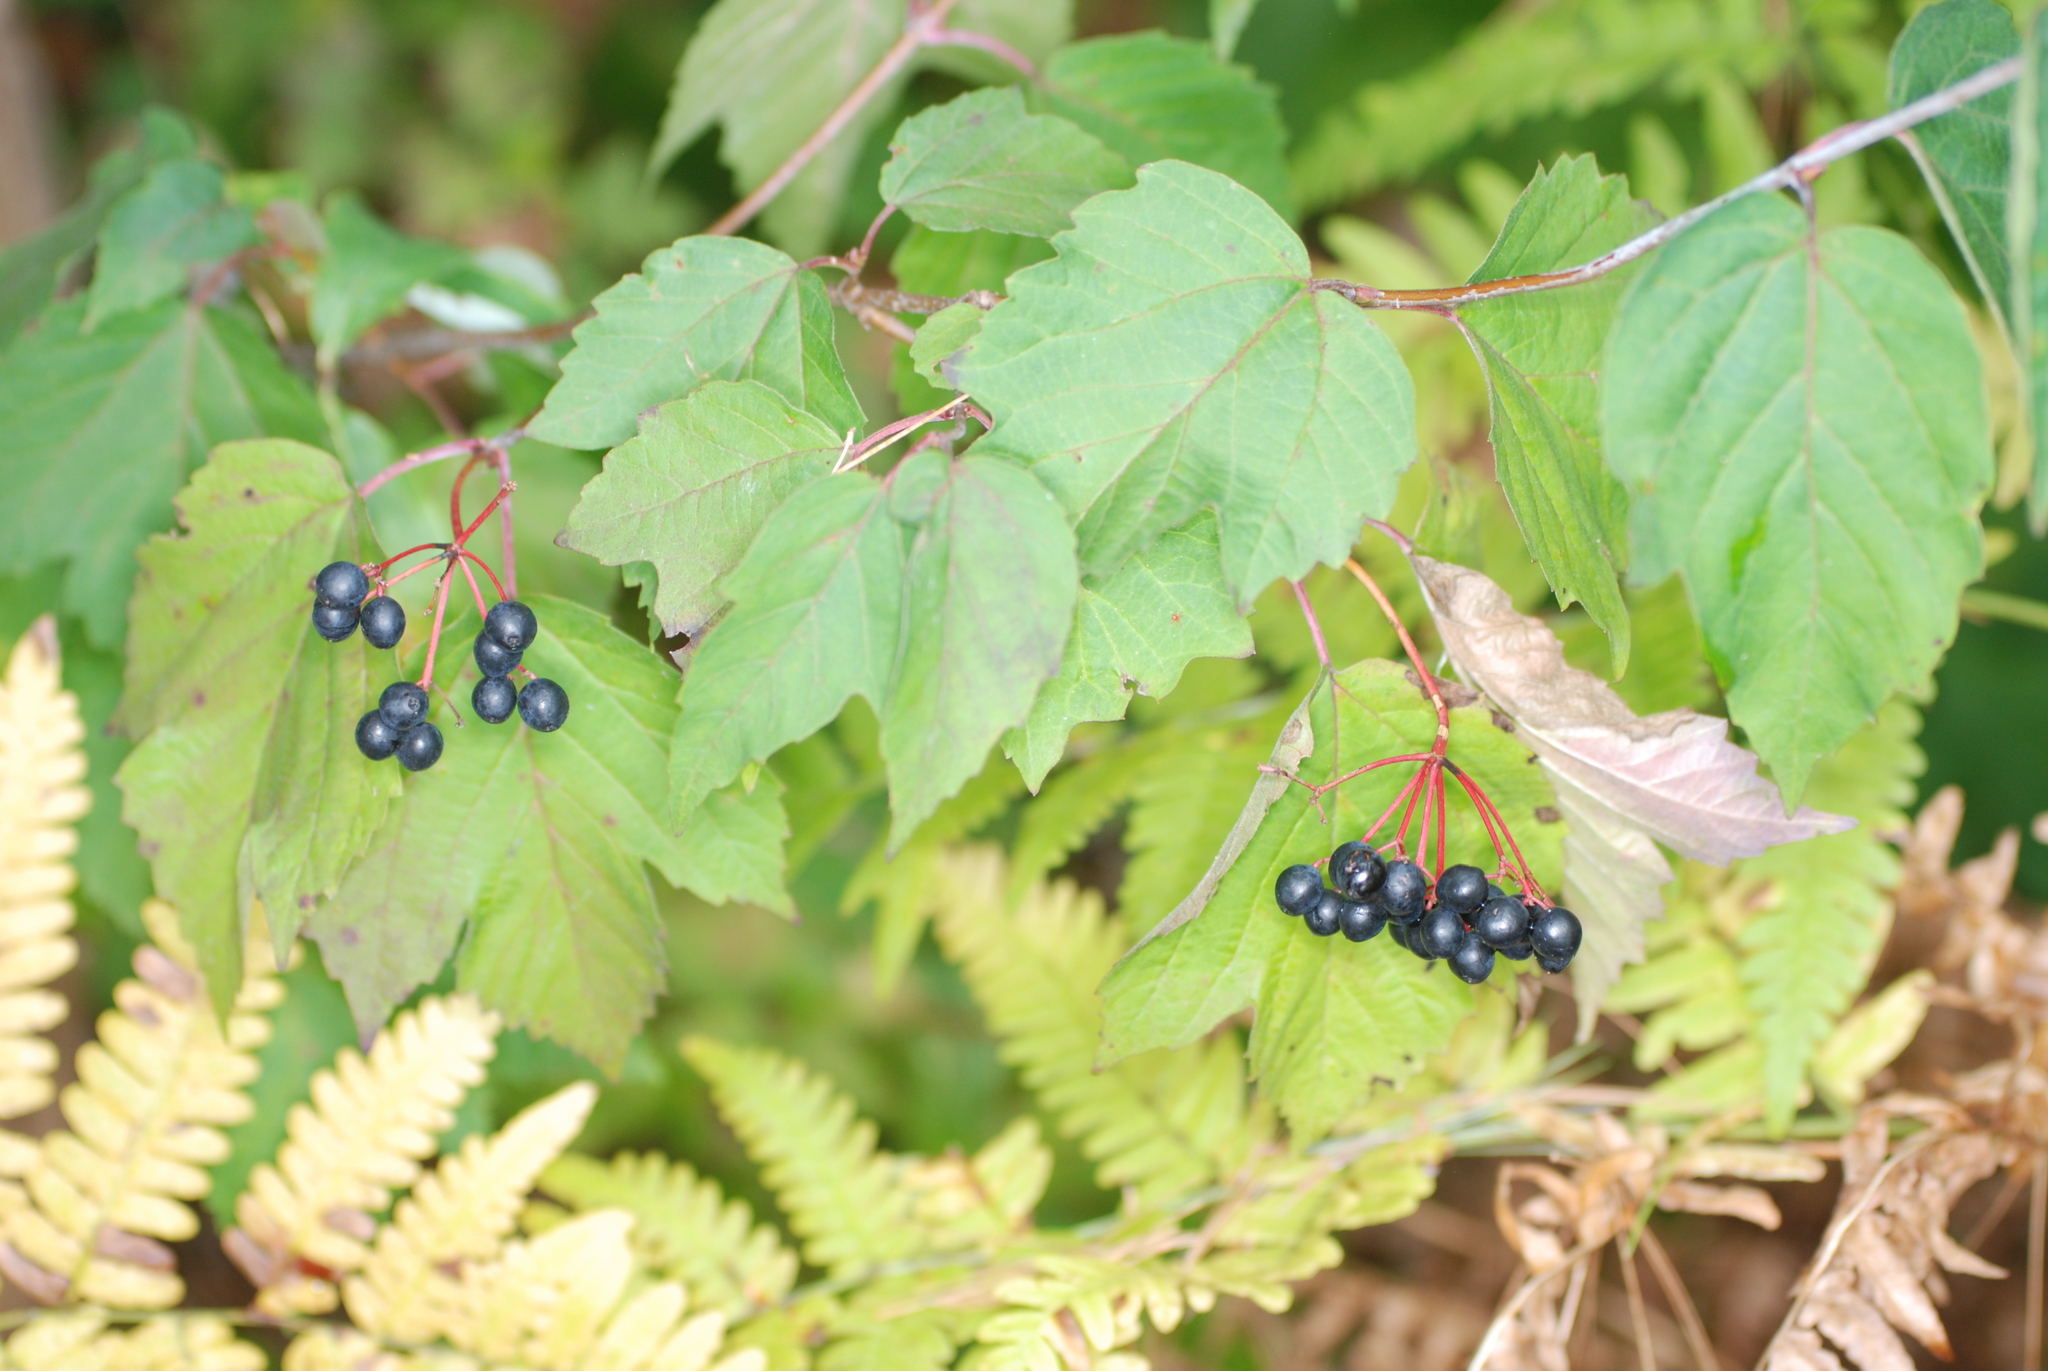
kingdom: Plantae
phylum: Tracheophyta
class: Magnoliopsida
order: Dipsacales
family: Viburnaceae
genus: Viburnum
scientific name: Viburnum acerifolium
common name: Dockmackie
